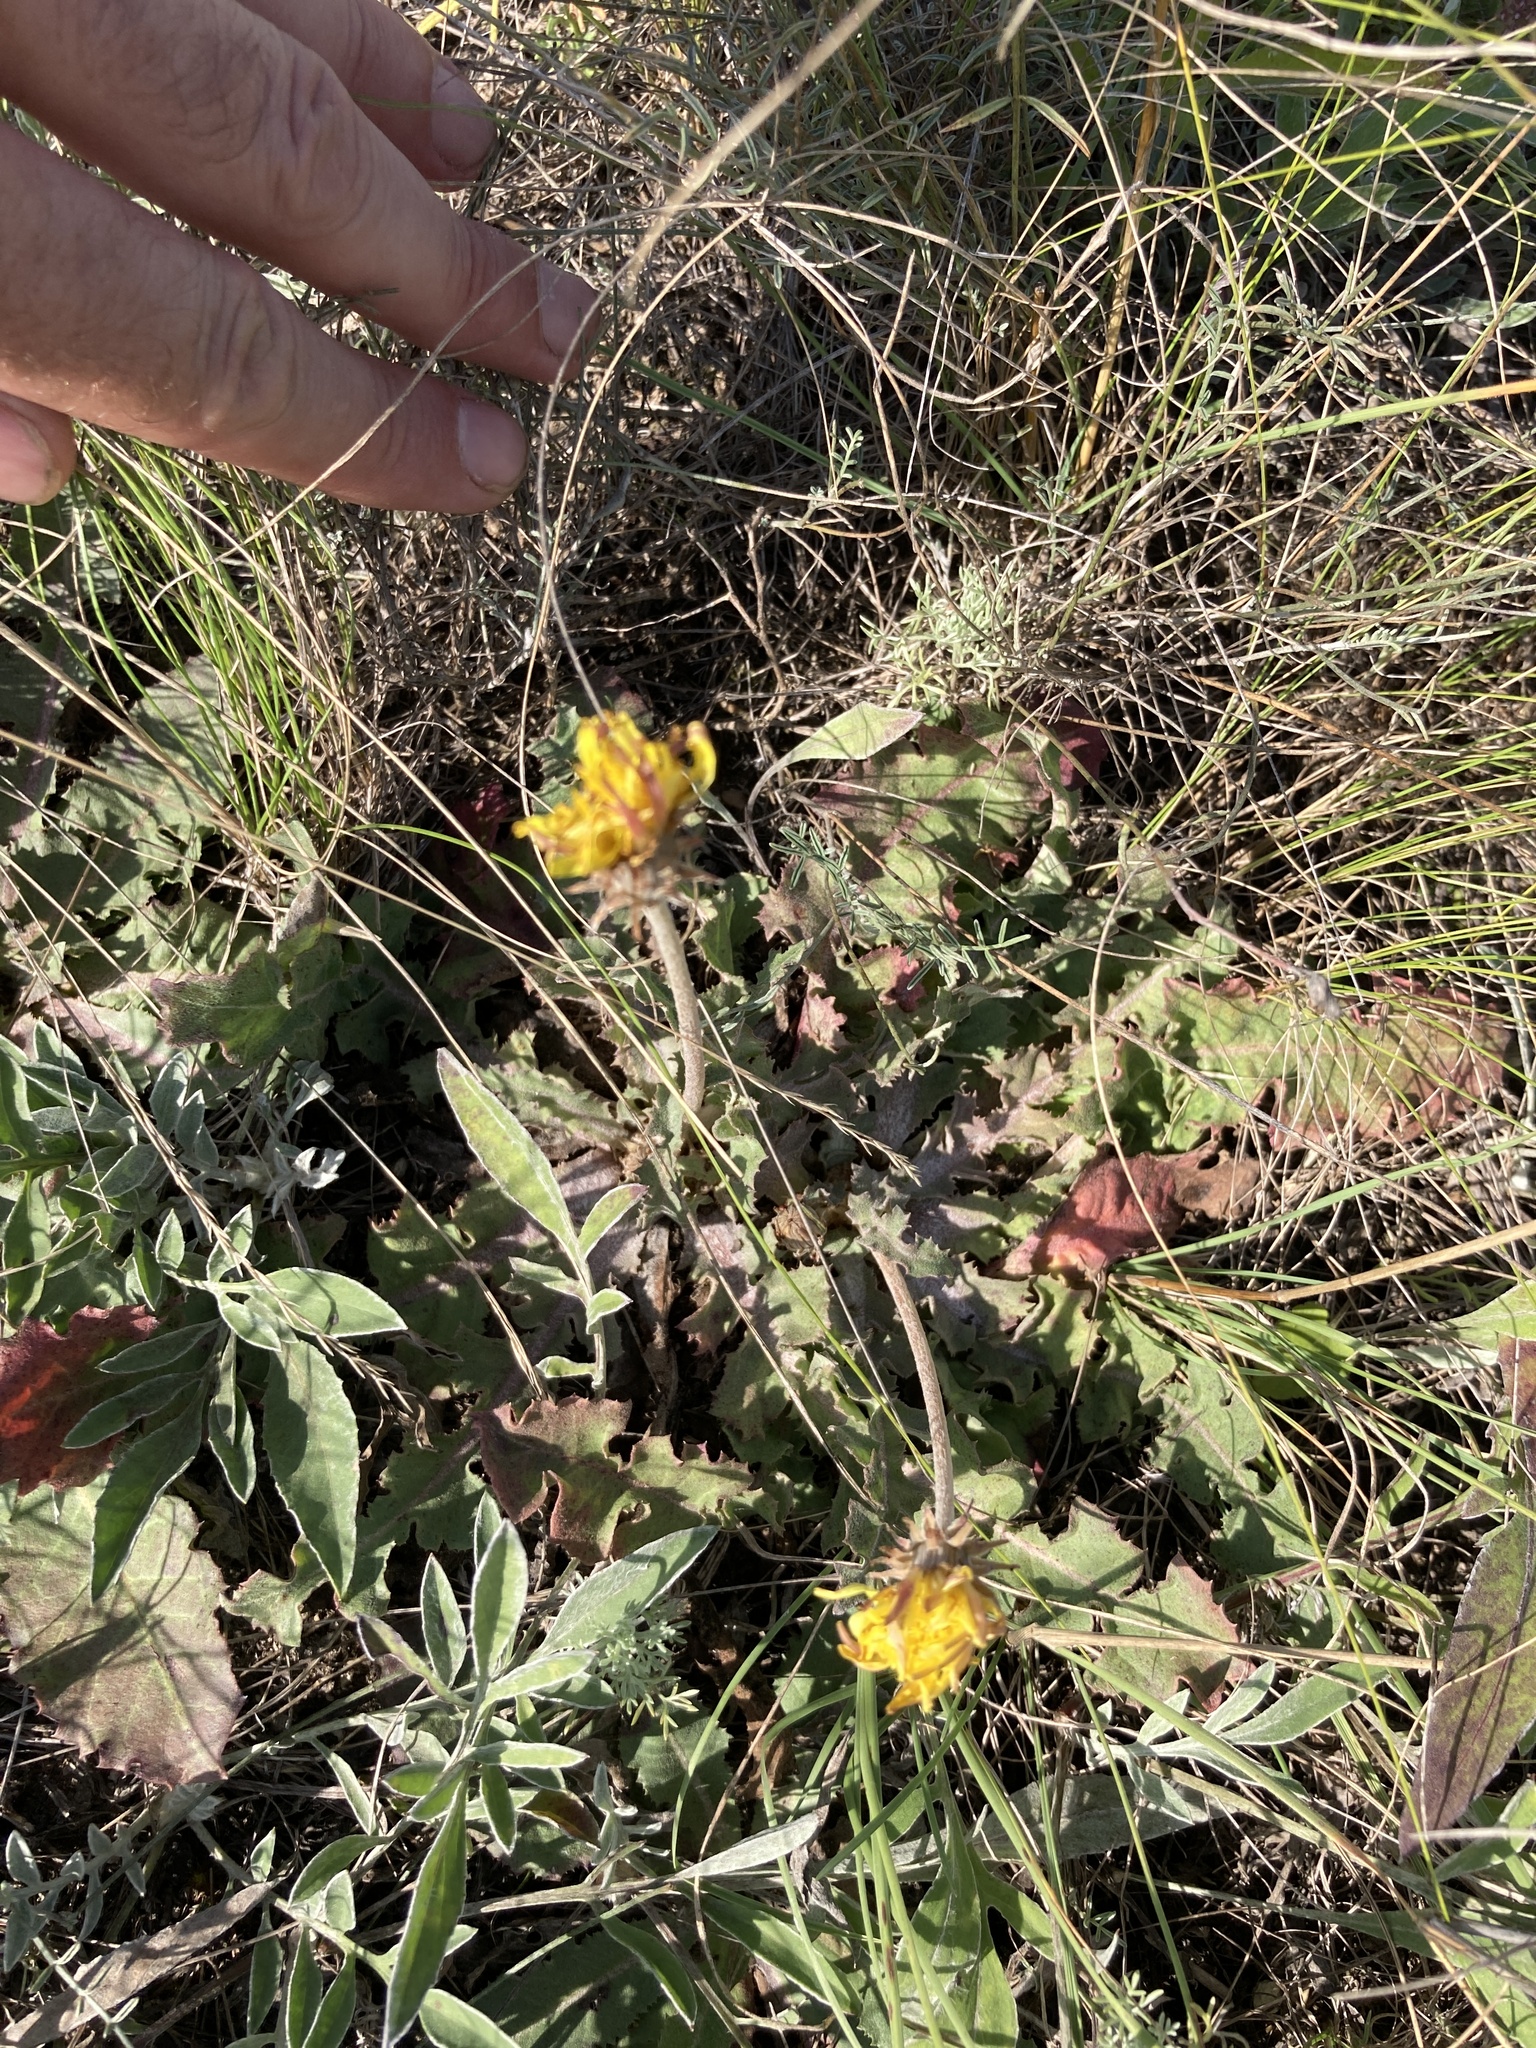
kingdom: Plantae
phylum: Tracheophyta
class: Magnoliopsida
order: Asterales
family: Asteraceae
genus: Taraxacum
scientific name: Taraxacum serotinum
